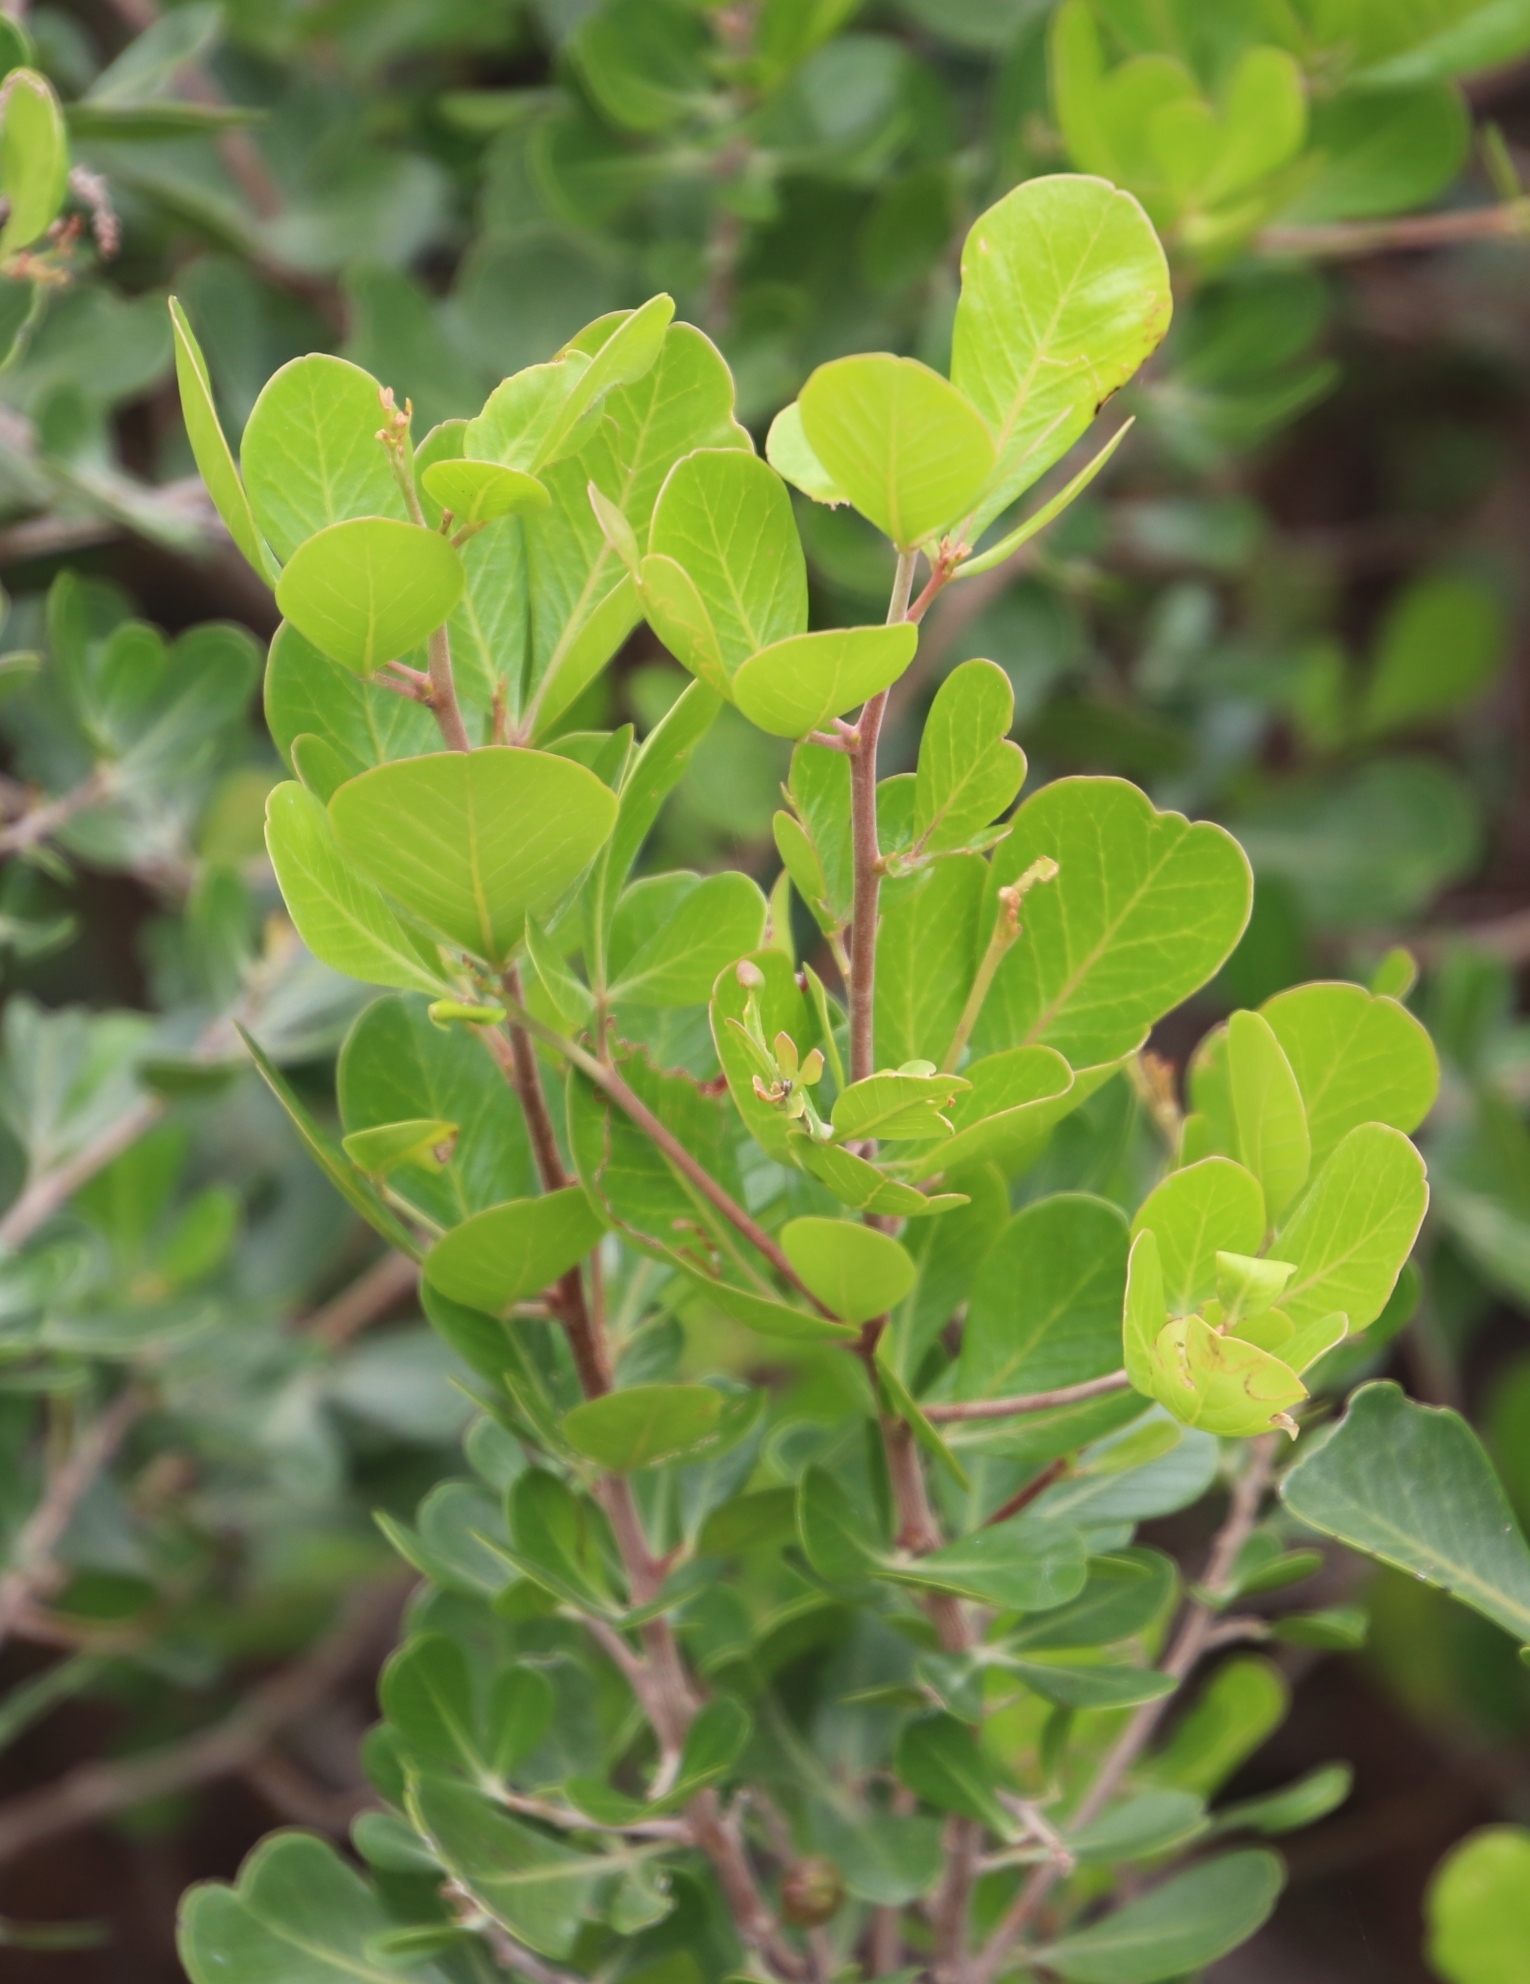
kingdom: Plantae
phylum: Tracheophyta
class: Magnoliopsida
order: Sapindales
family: Anacardiaceae
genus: Searsia
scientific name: Searsia lucida
